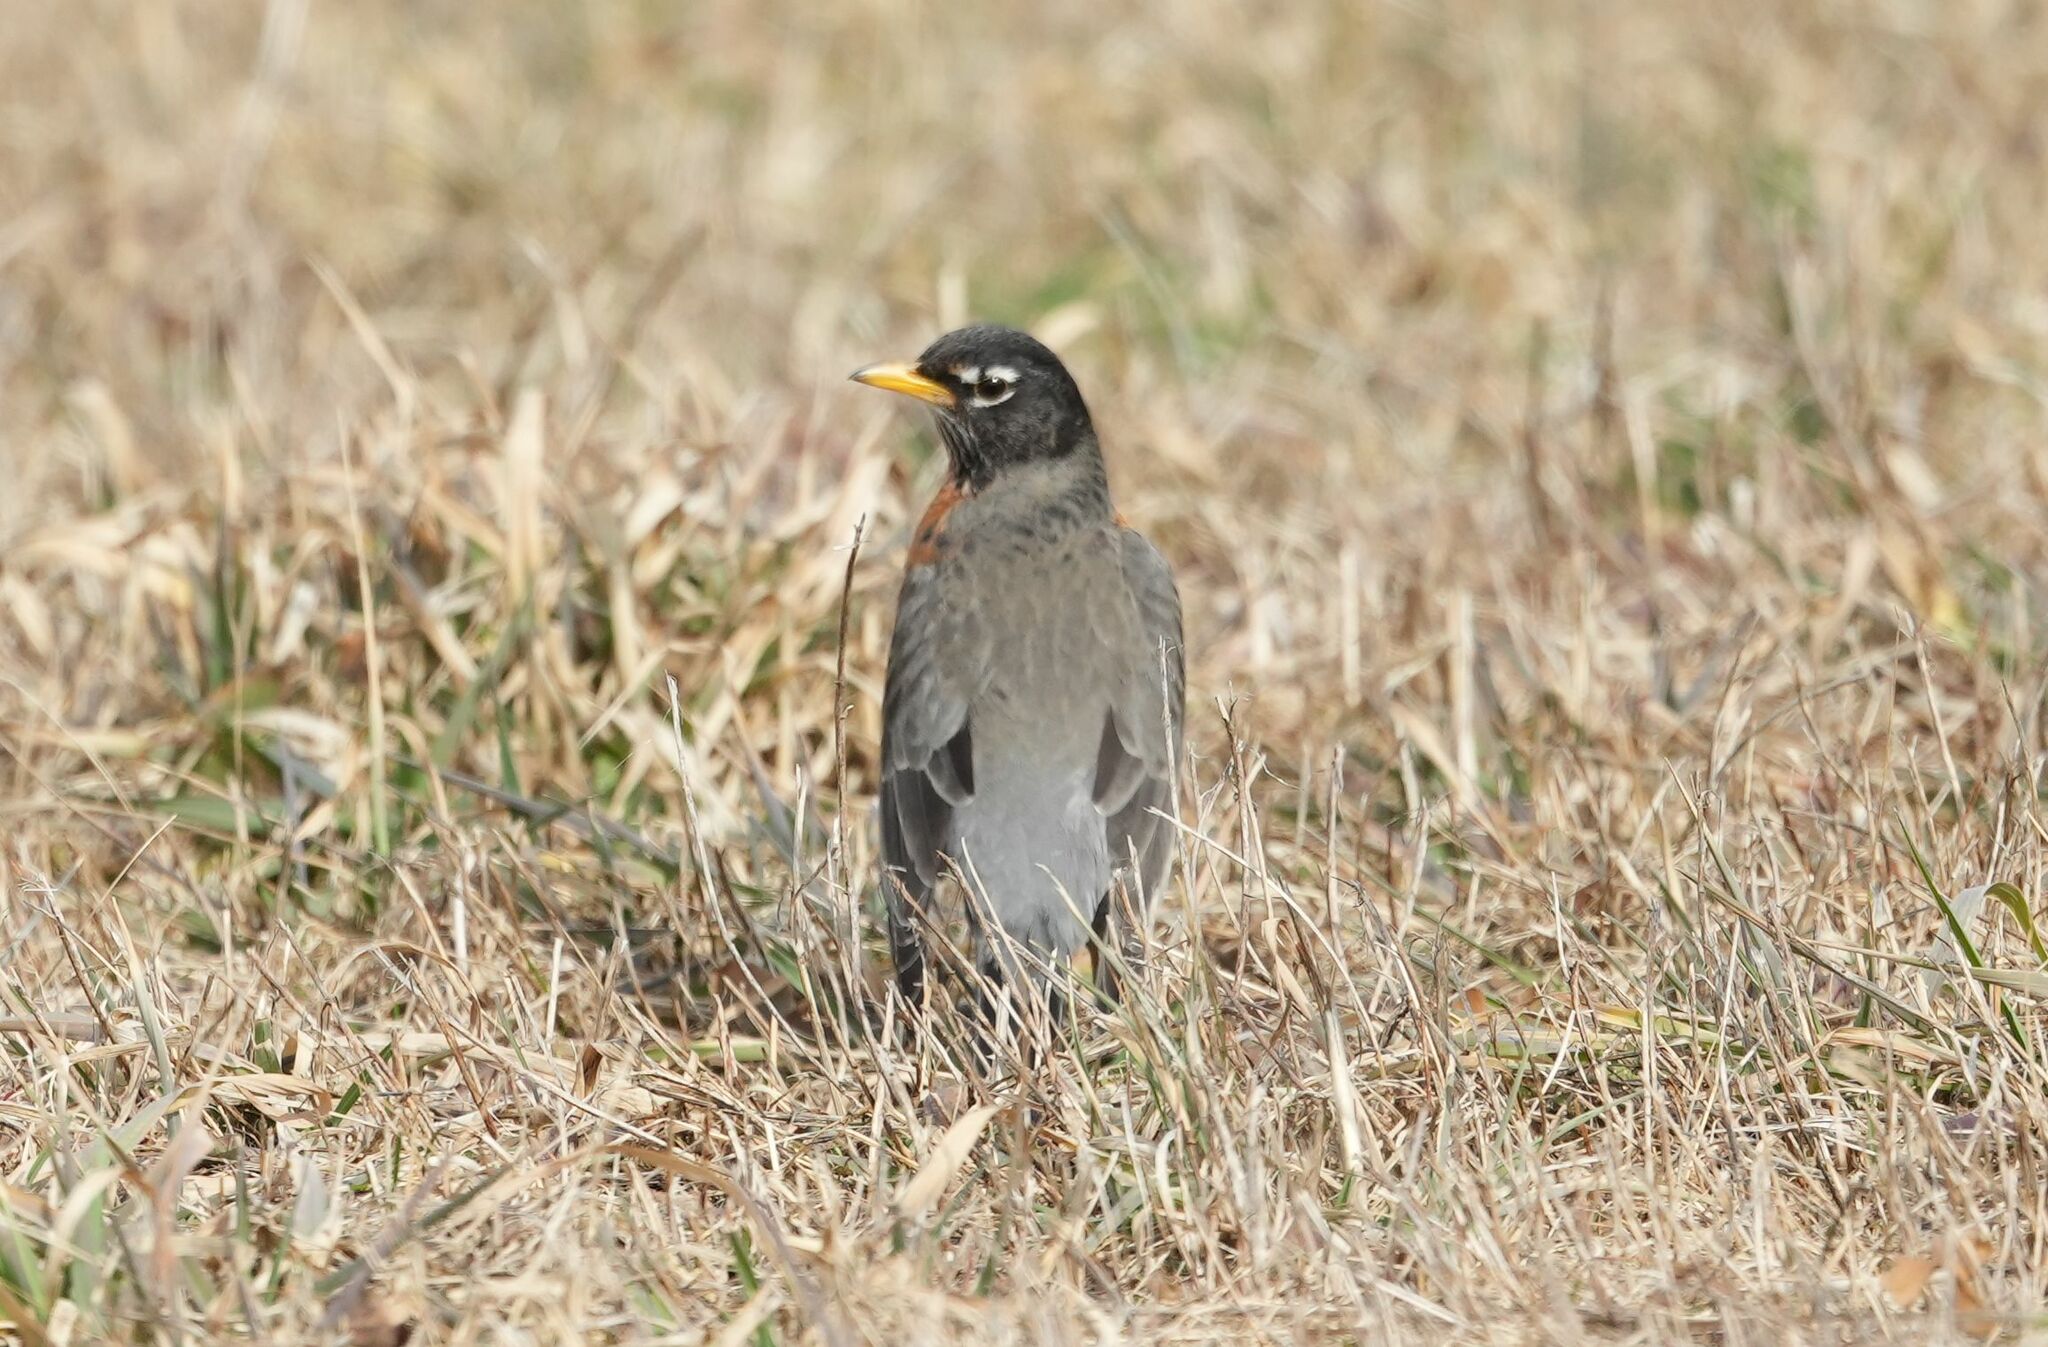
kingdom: Animalia
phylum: Chordata
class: Aves
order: Passeriformes
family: Turdidae
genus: Turdus
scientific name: Turdus migratorius
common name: American robin
